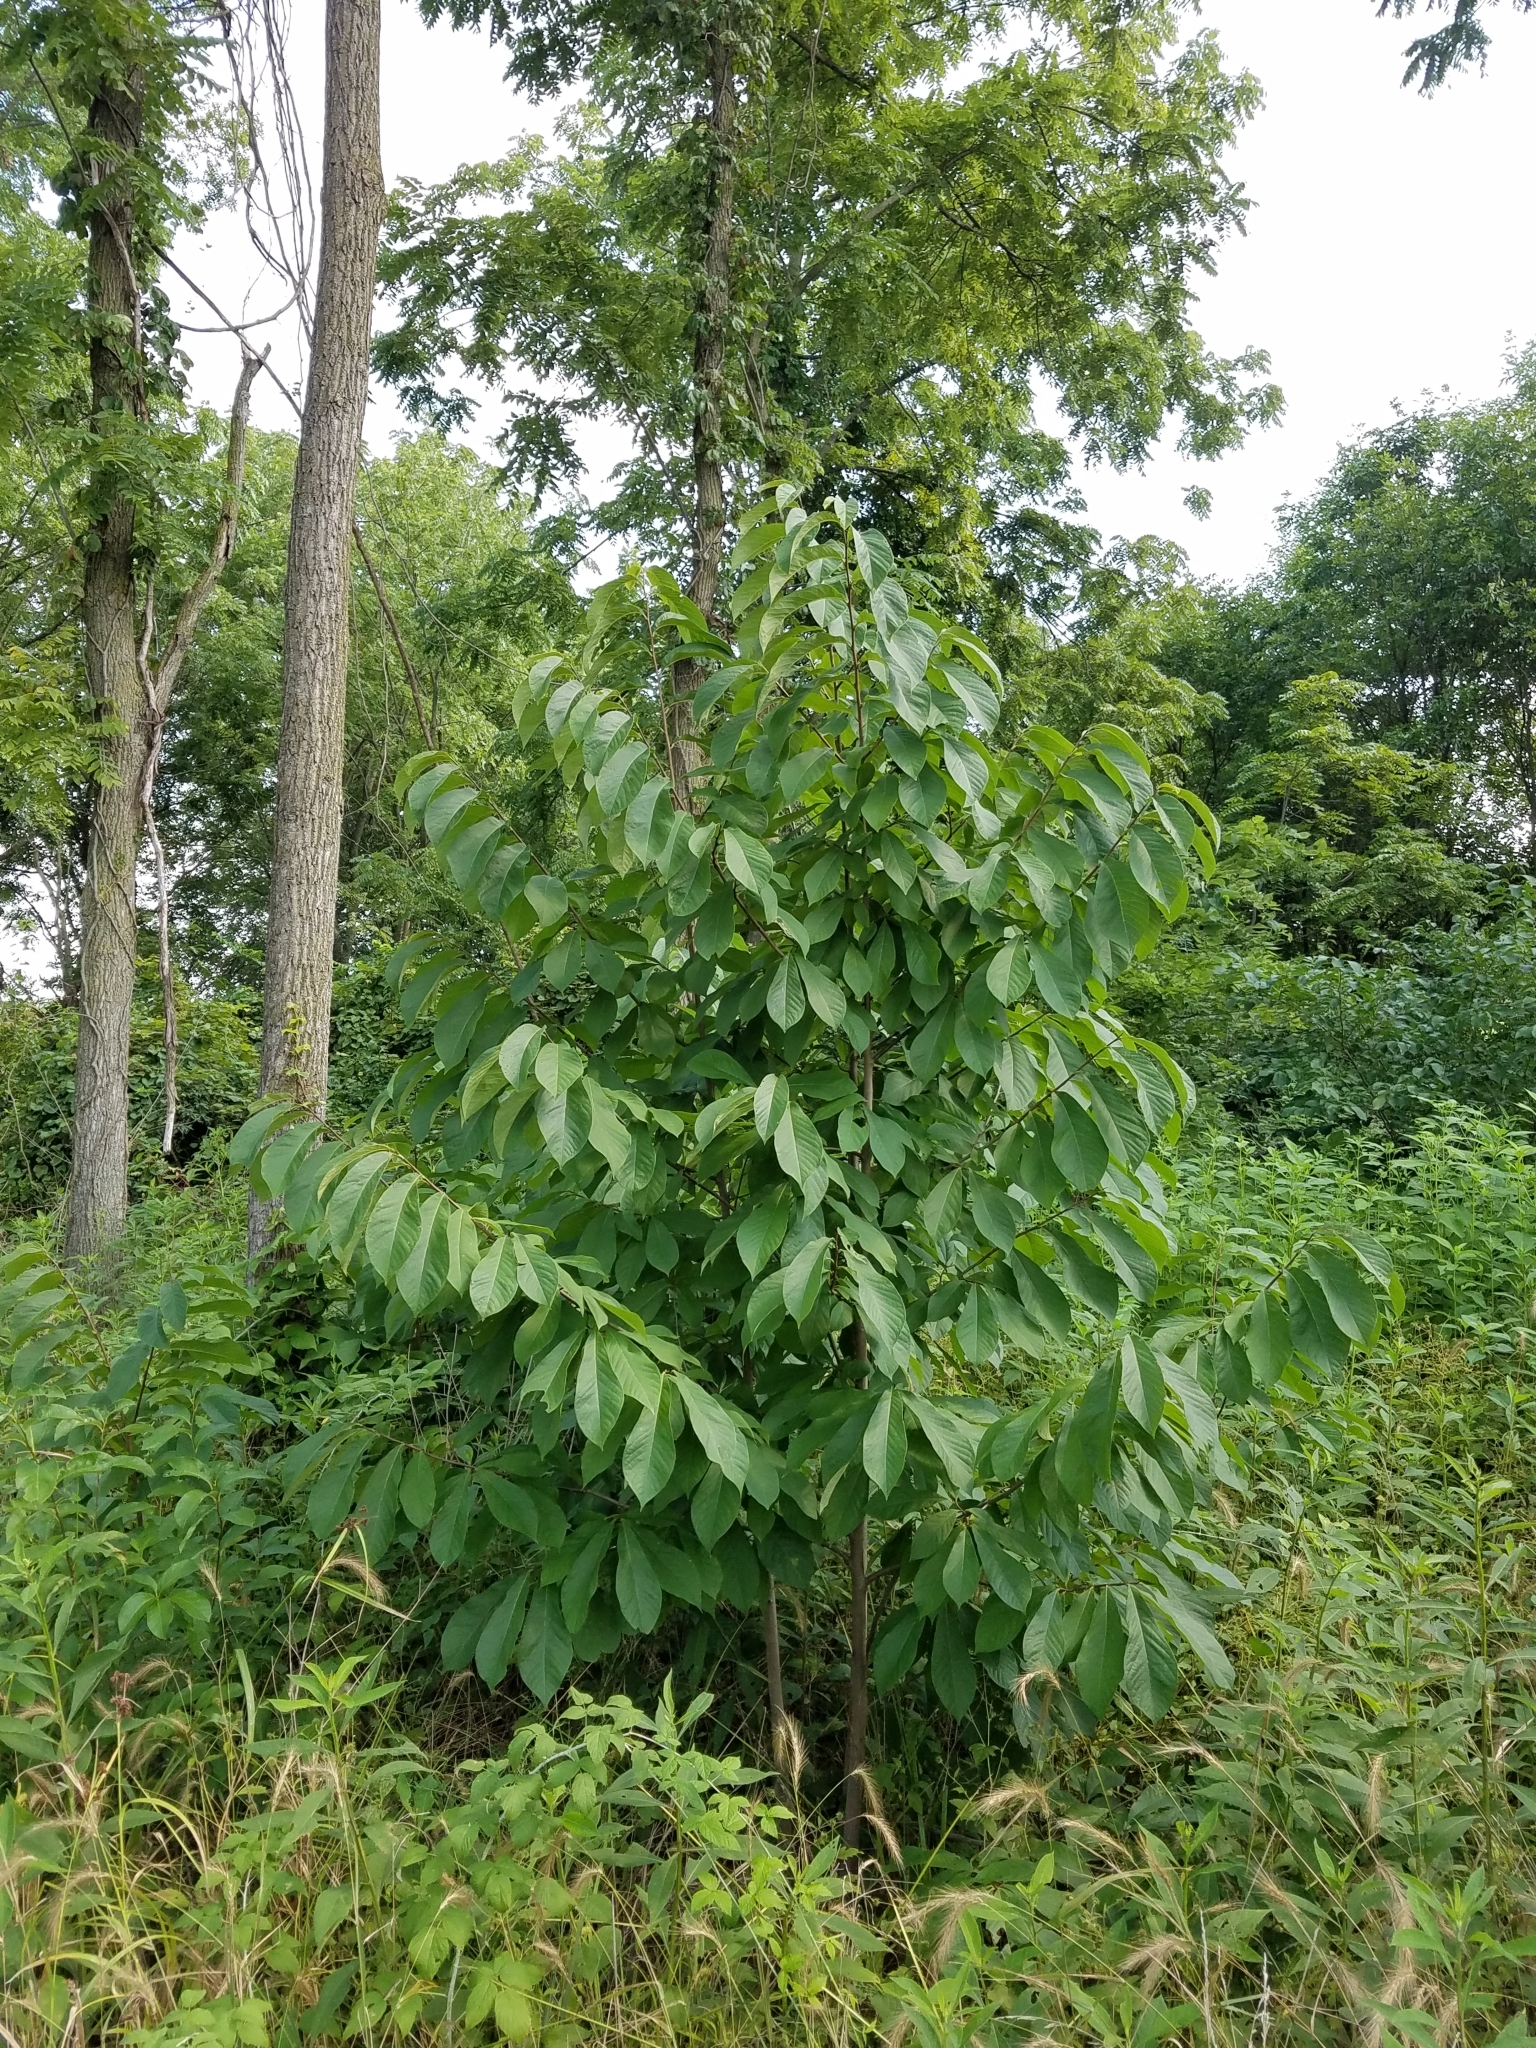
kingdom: Plantae
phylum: Tracheophyta
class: Magnoliopsida
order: Magnoliales
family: Annonaceae
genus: Asimina
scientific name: Asimina triloba
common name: Dog-banana
